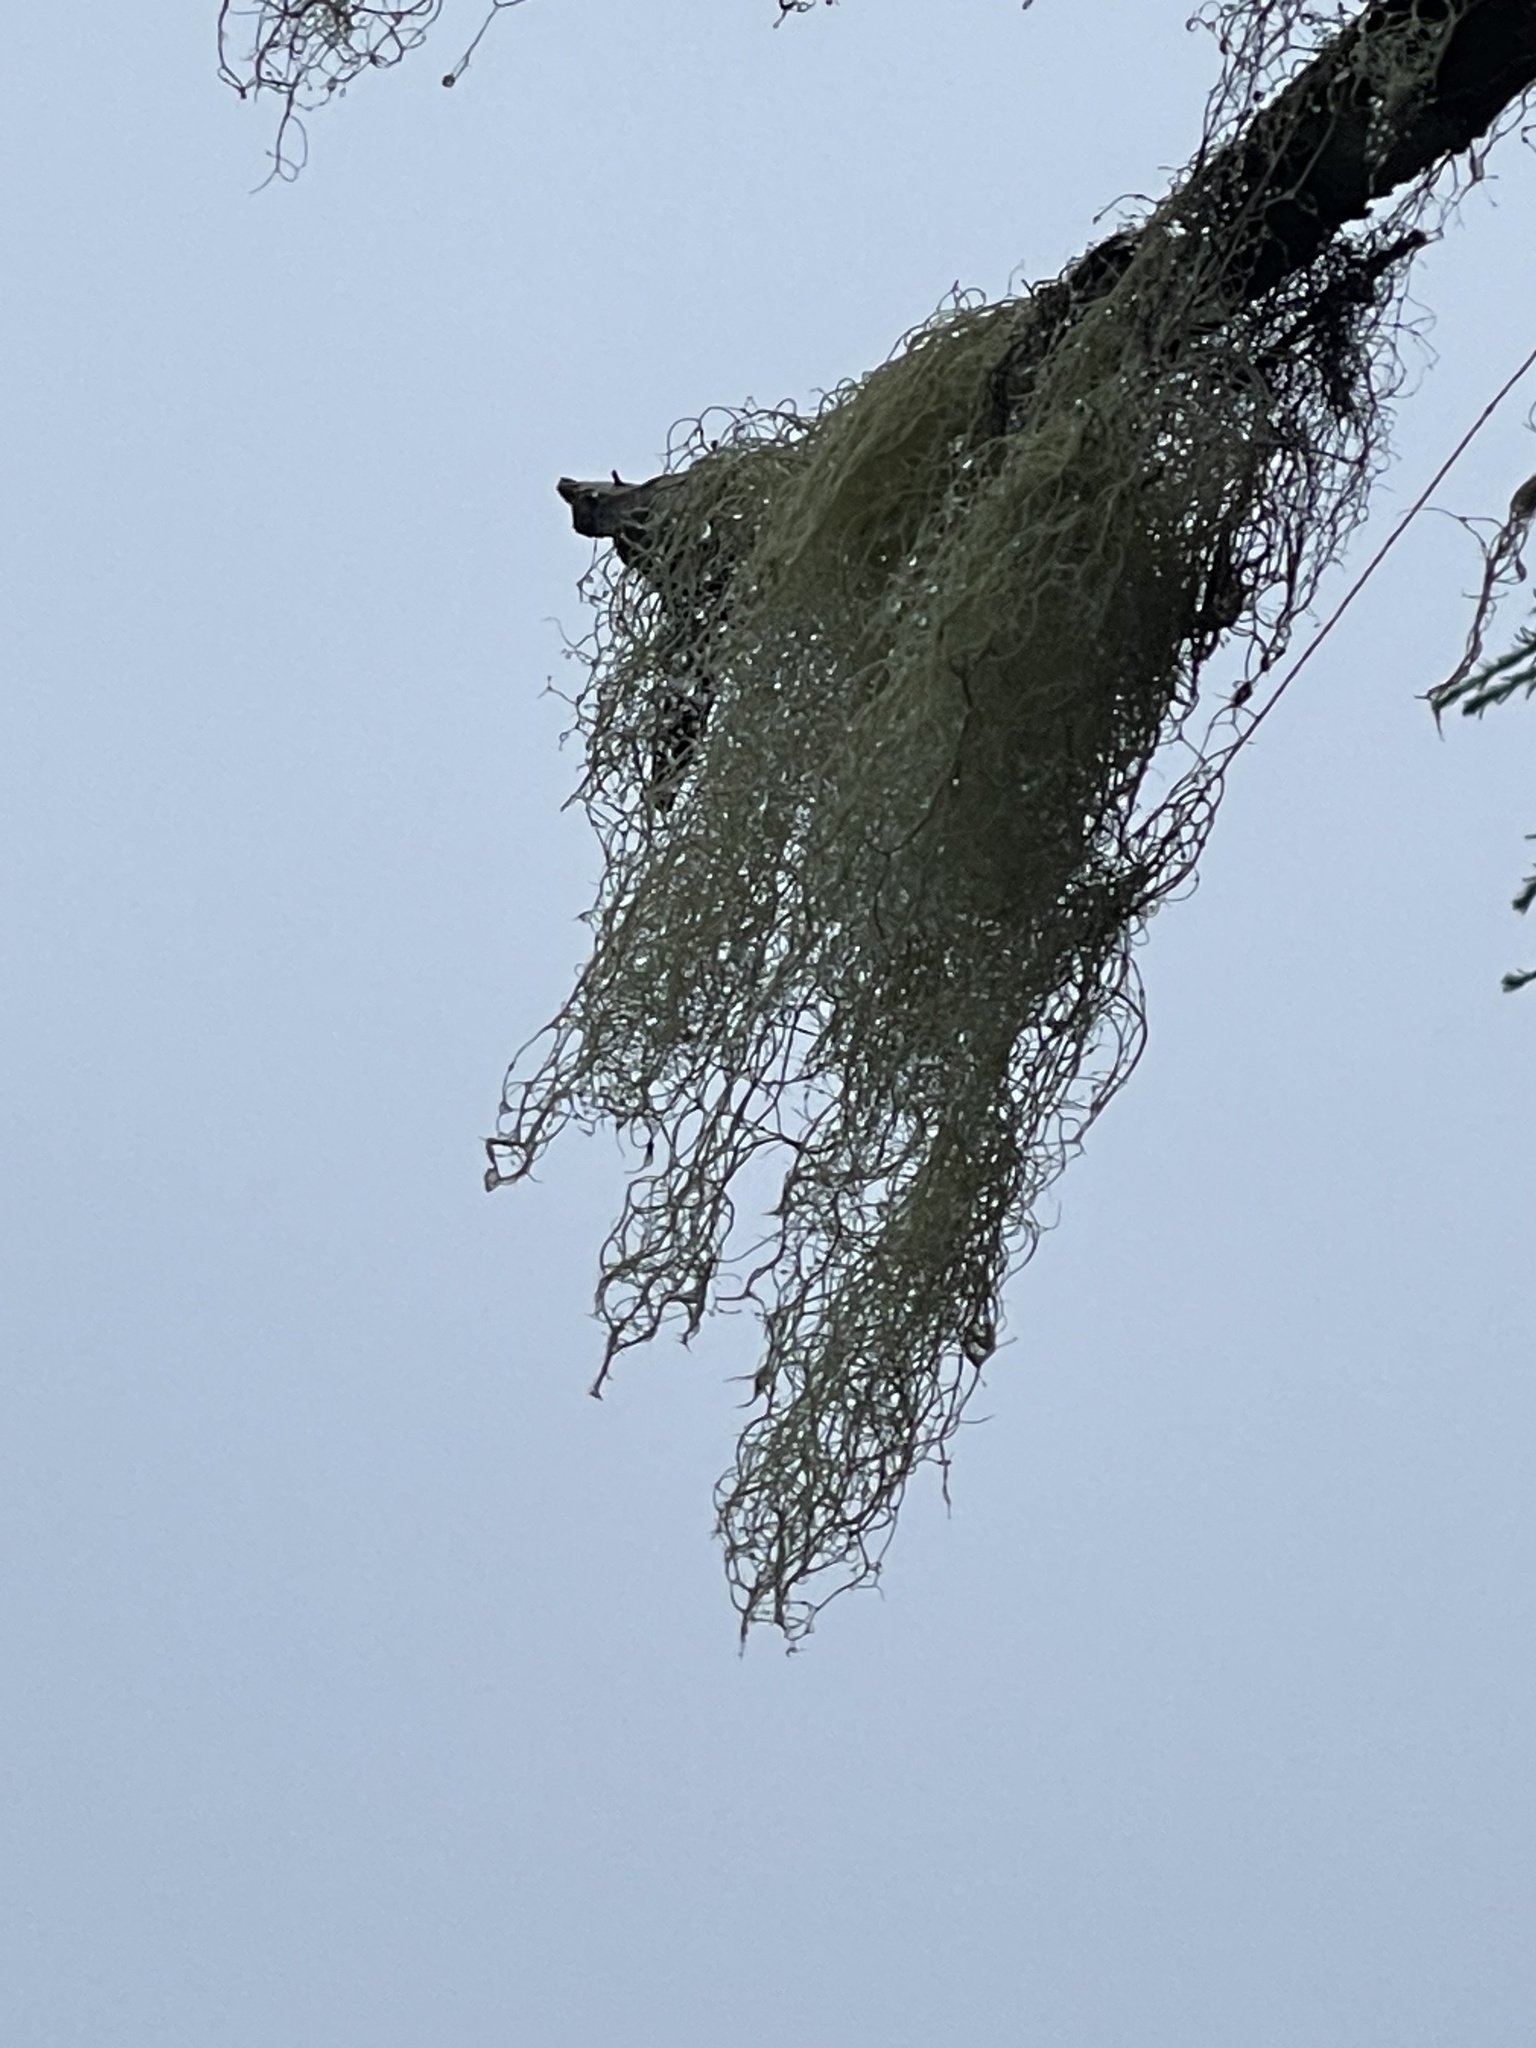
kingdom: Fungi
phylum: Ascomycota
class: Lecanoromycetes
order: Lecanorales
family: Parmeliaceae
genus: Alectoria
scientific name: Alectoria sarmentosa
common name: Witch's hair
